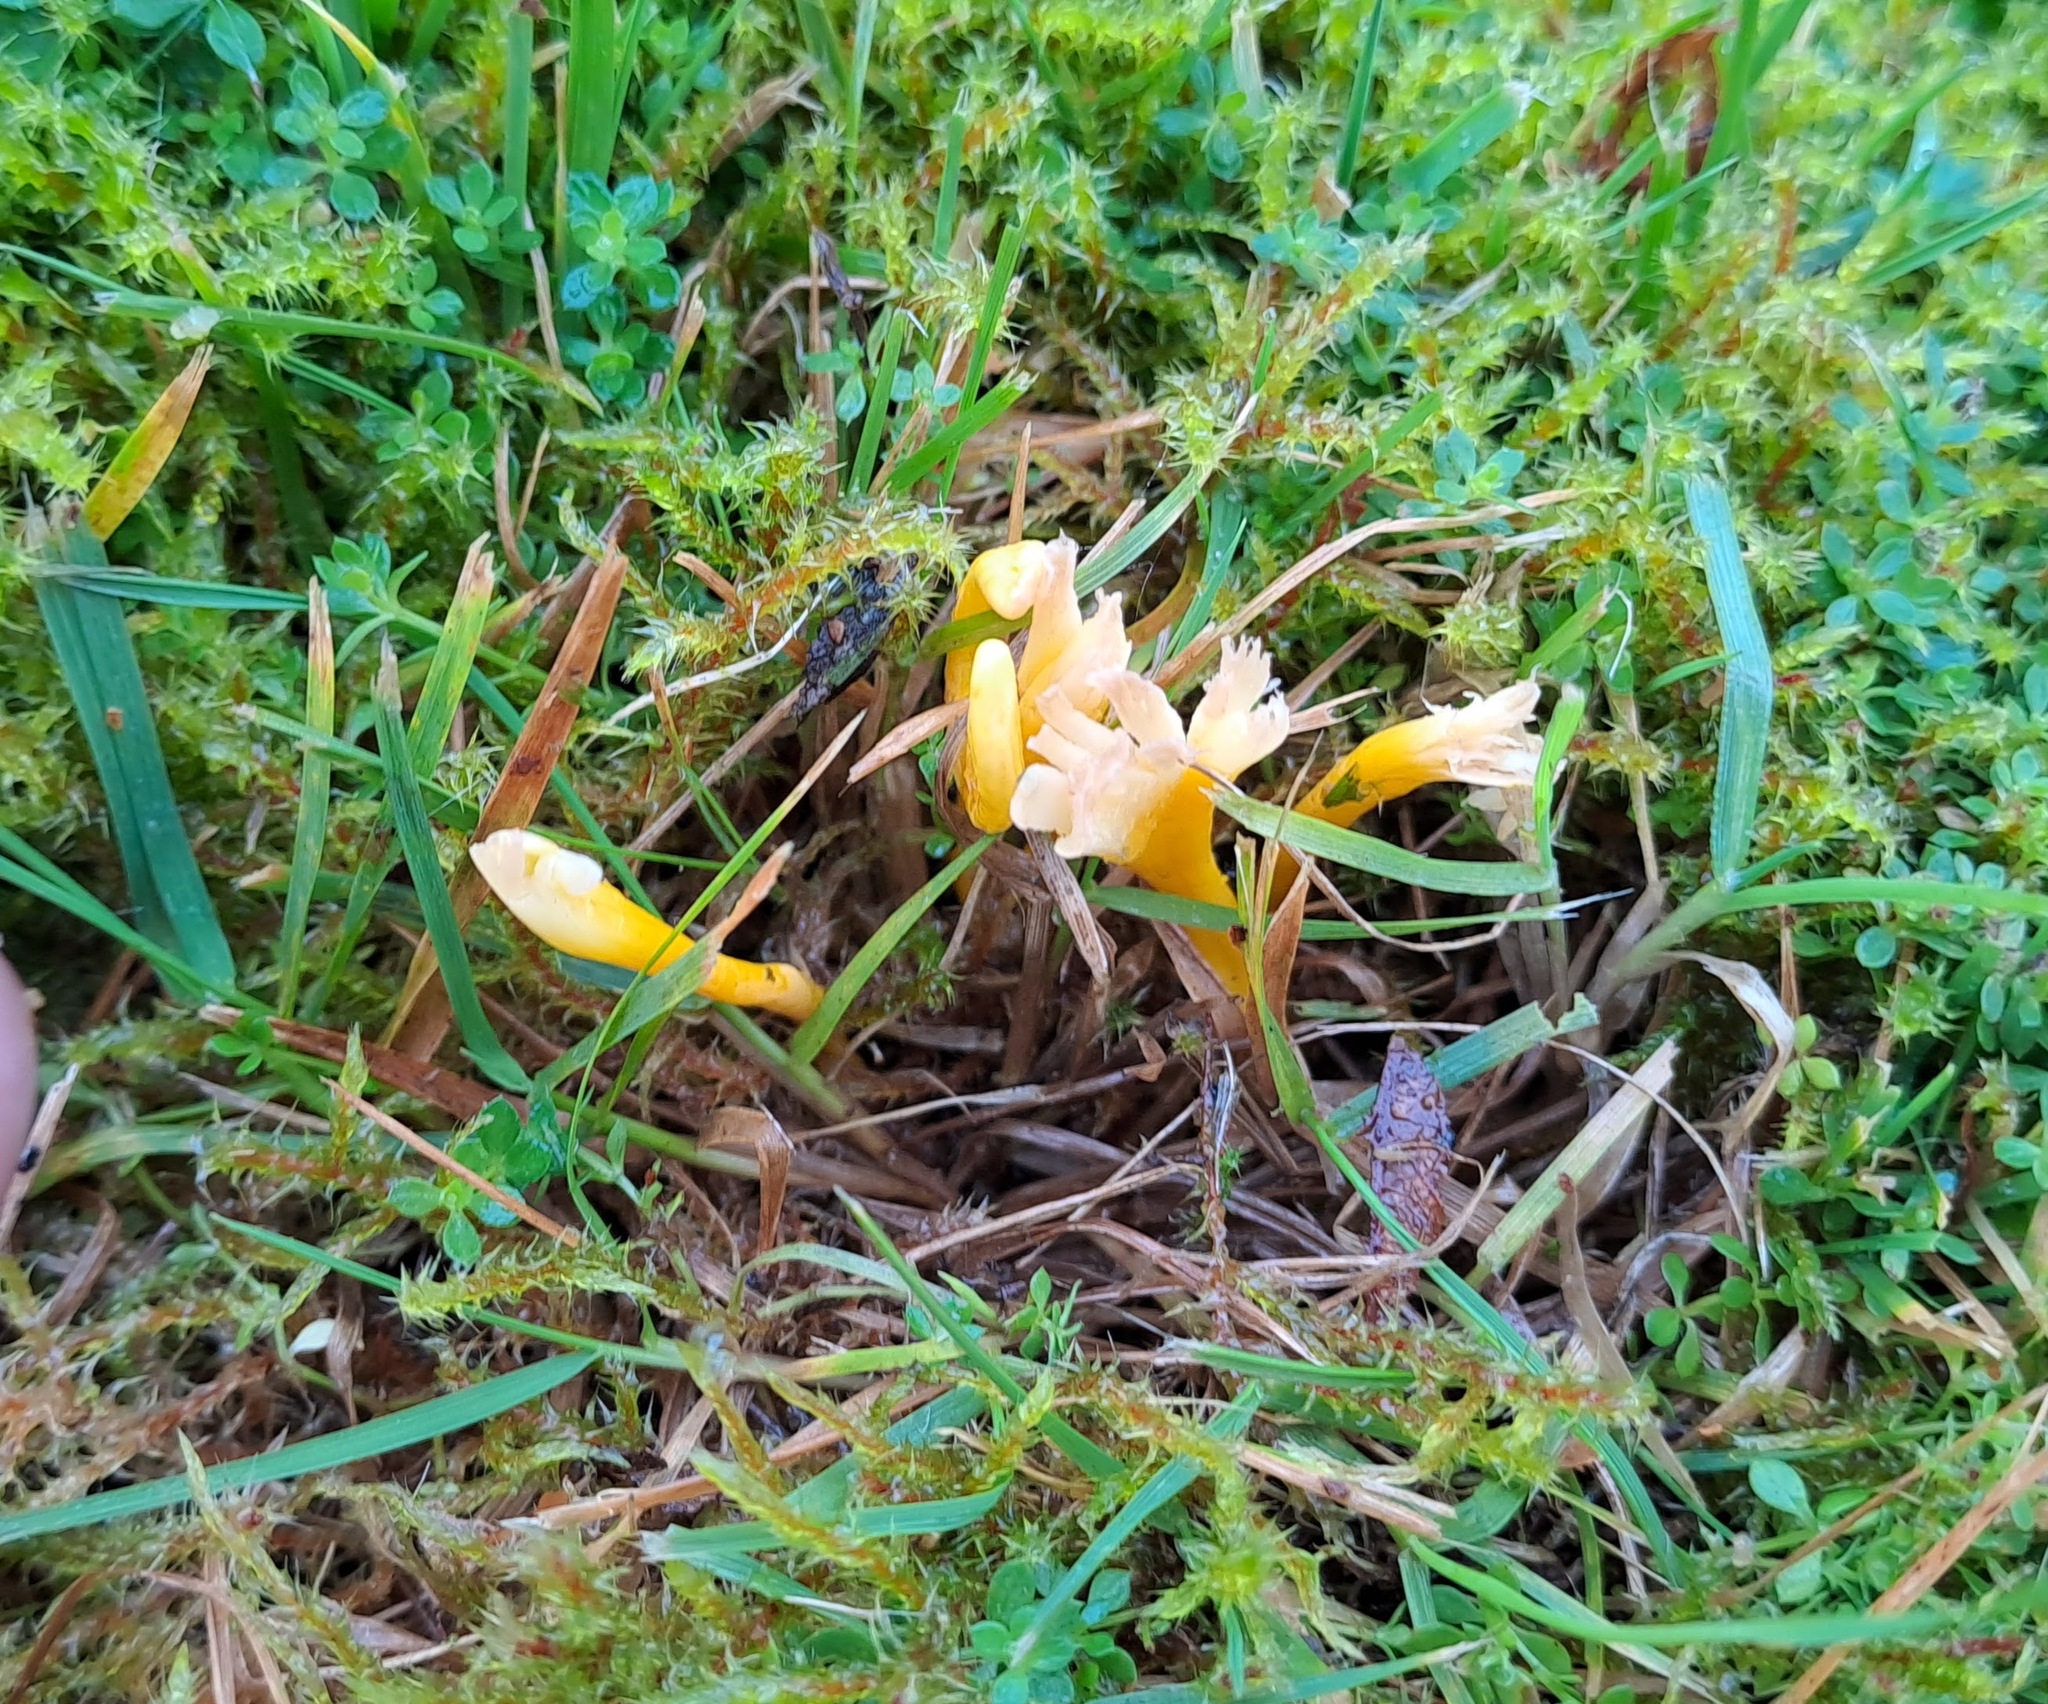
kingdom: Fungi
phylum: Basidiomycota
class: Agaricomycetes
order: Agaricales
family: Clavariaceae
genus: Clavulinopsis
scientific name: Clavulinopsis helvola
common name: Yellow club
